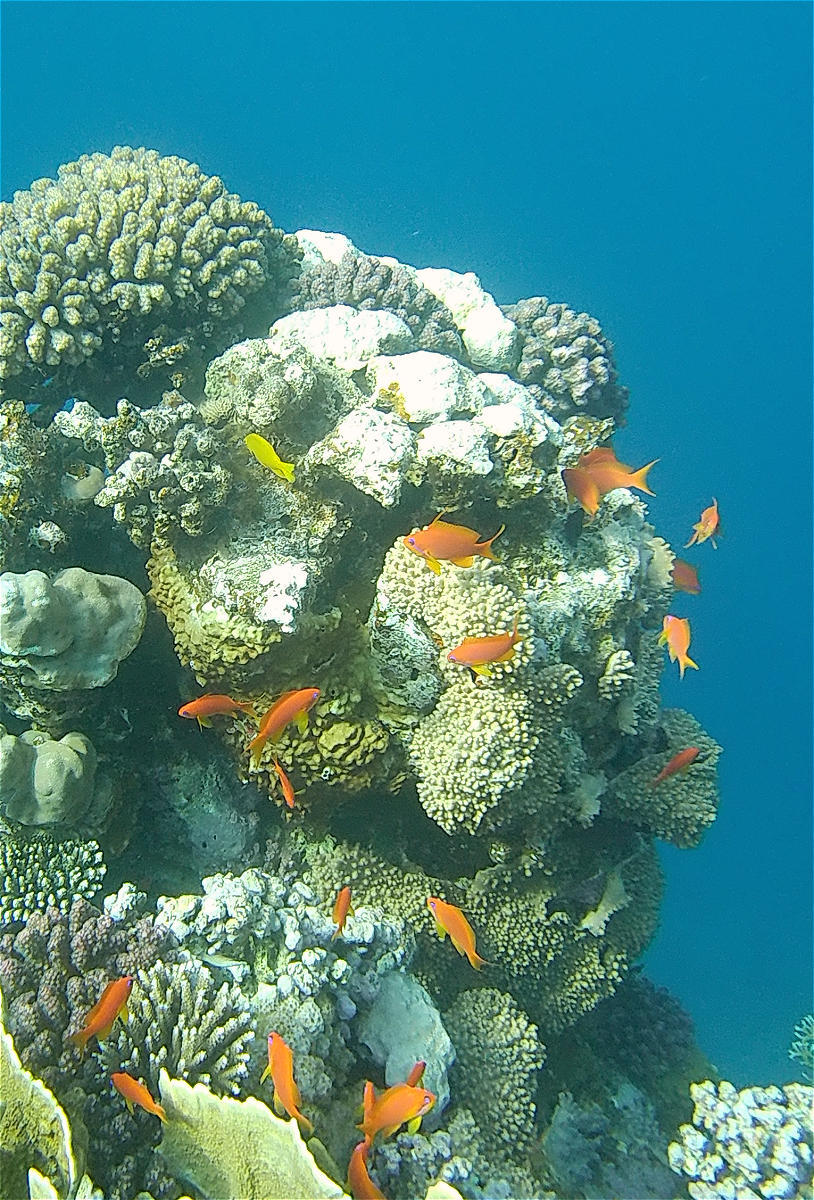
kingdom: Animalia
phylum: Chordata
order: Perciformes
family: Serranidae
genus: Pseudanthias
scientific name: Pseudanthias squamipinnis
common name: Scalefin anthias
